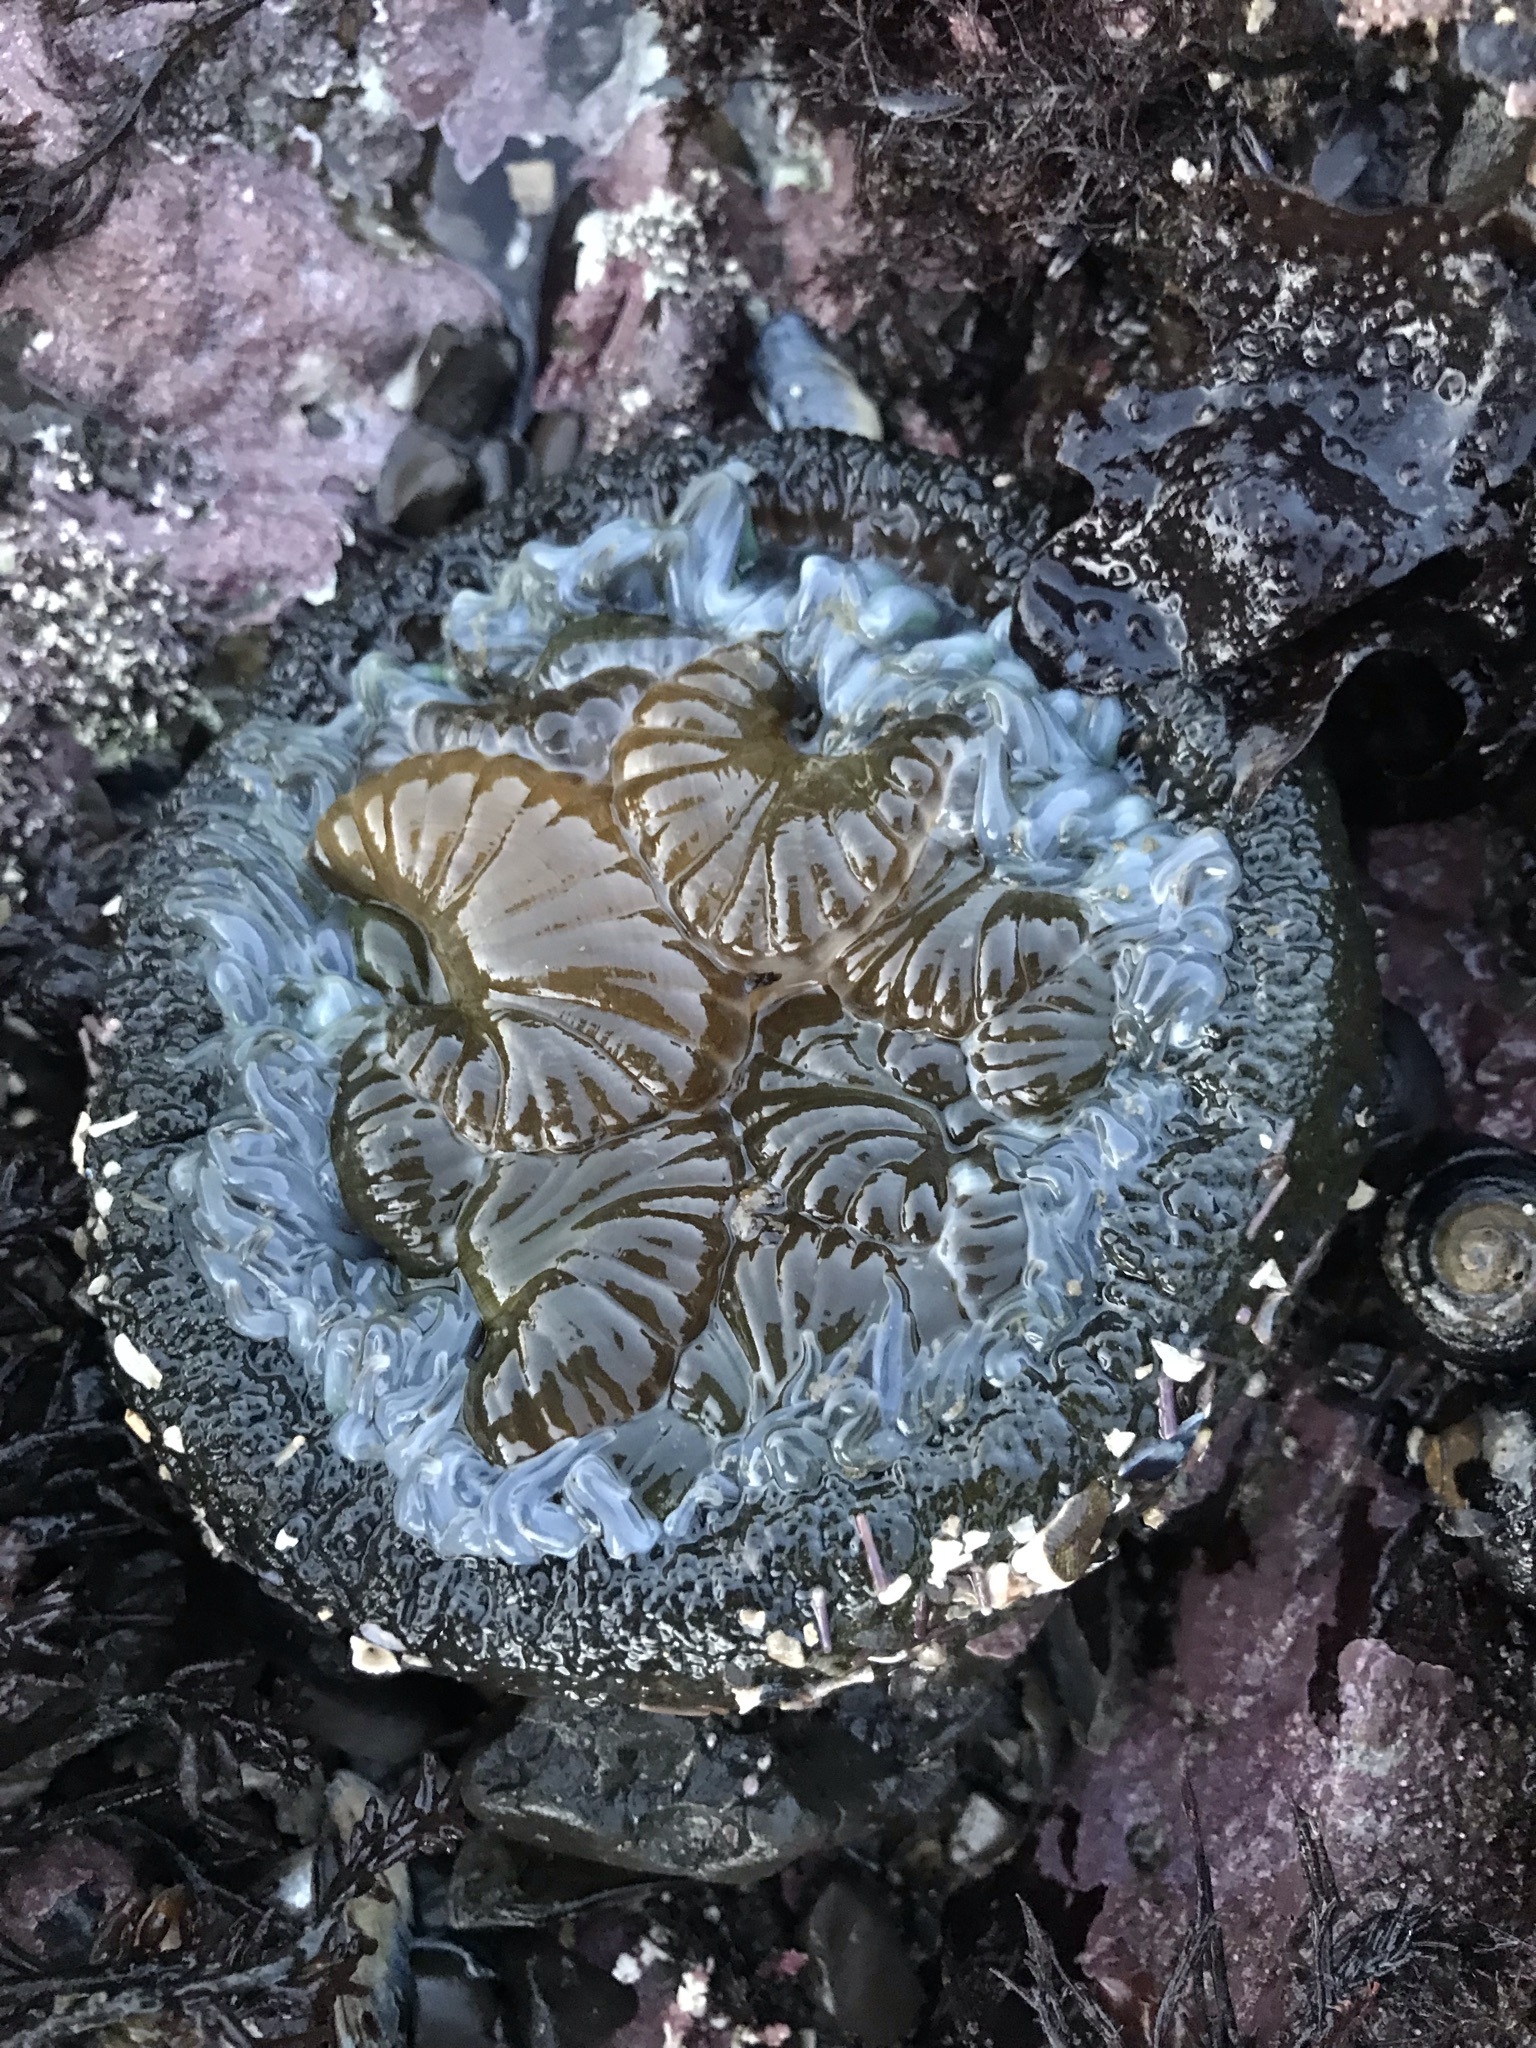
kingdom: Animalia
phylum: Cnidaria
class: Anthozoa
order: Actiniaria
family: Actiniidae
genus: Anthopleura
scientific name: Anthopleura sola
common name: Sun anemone
